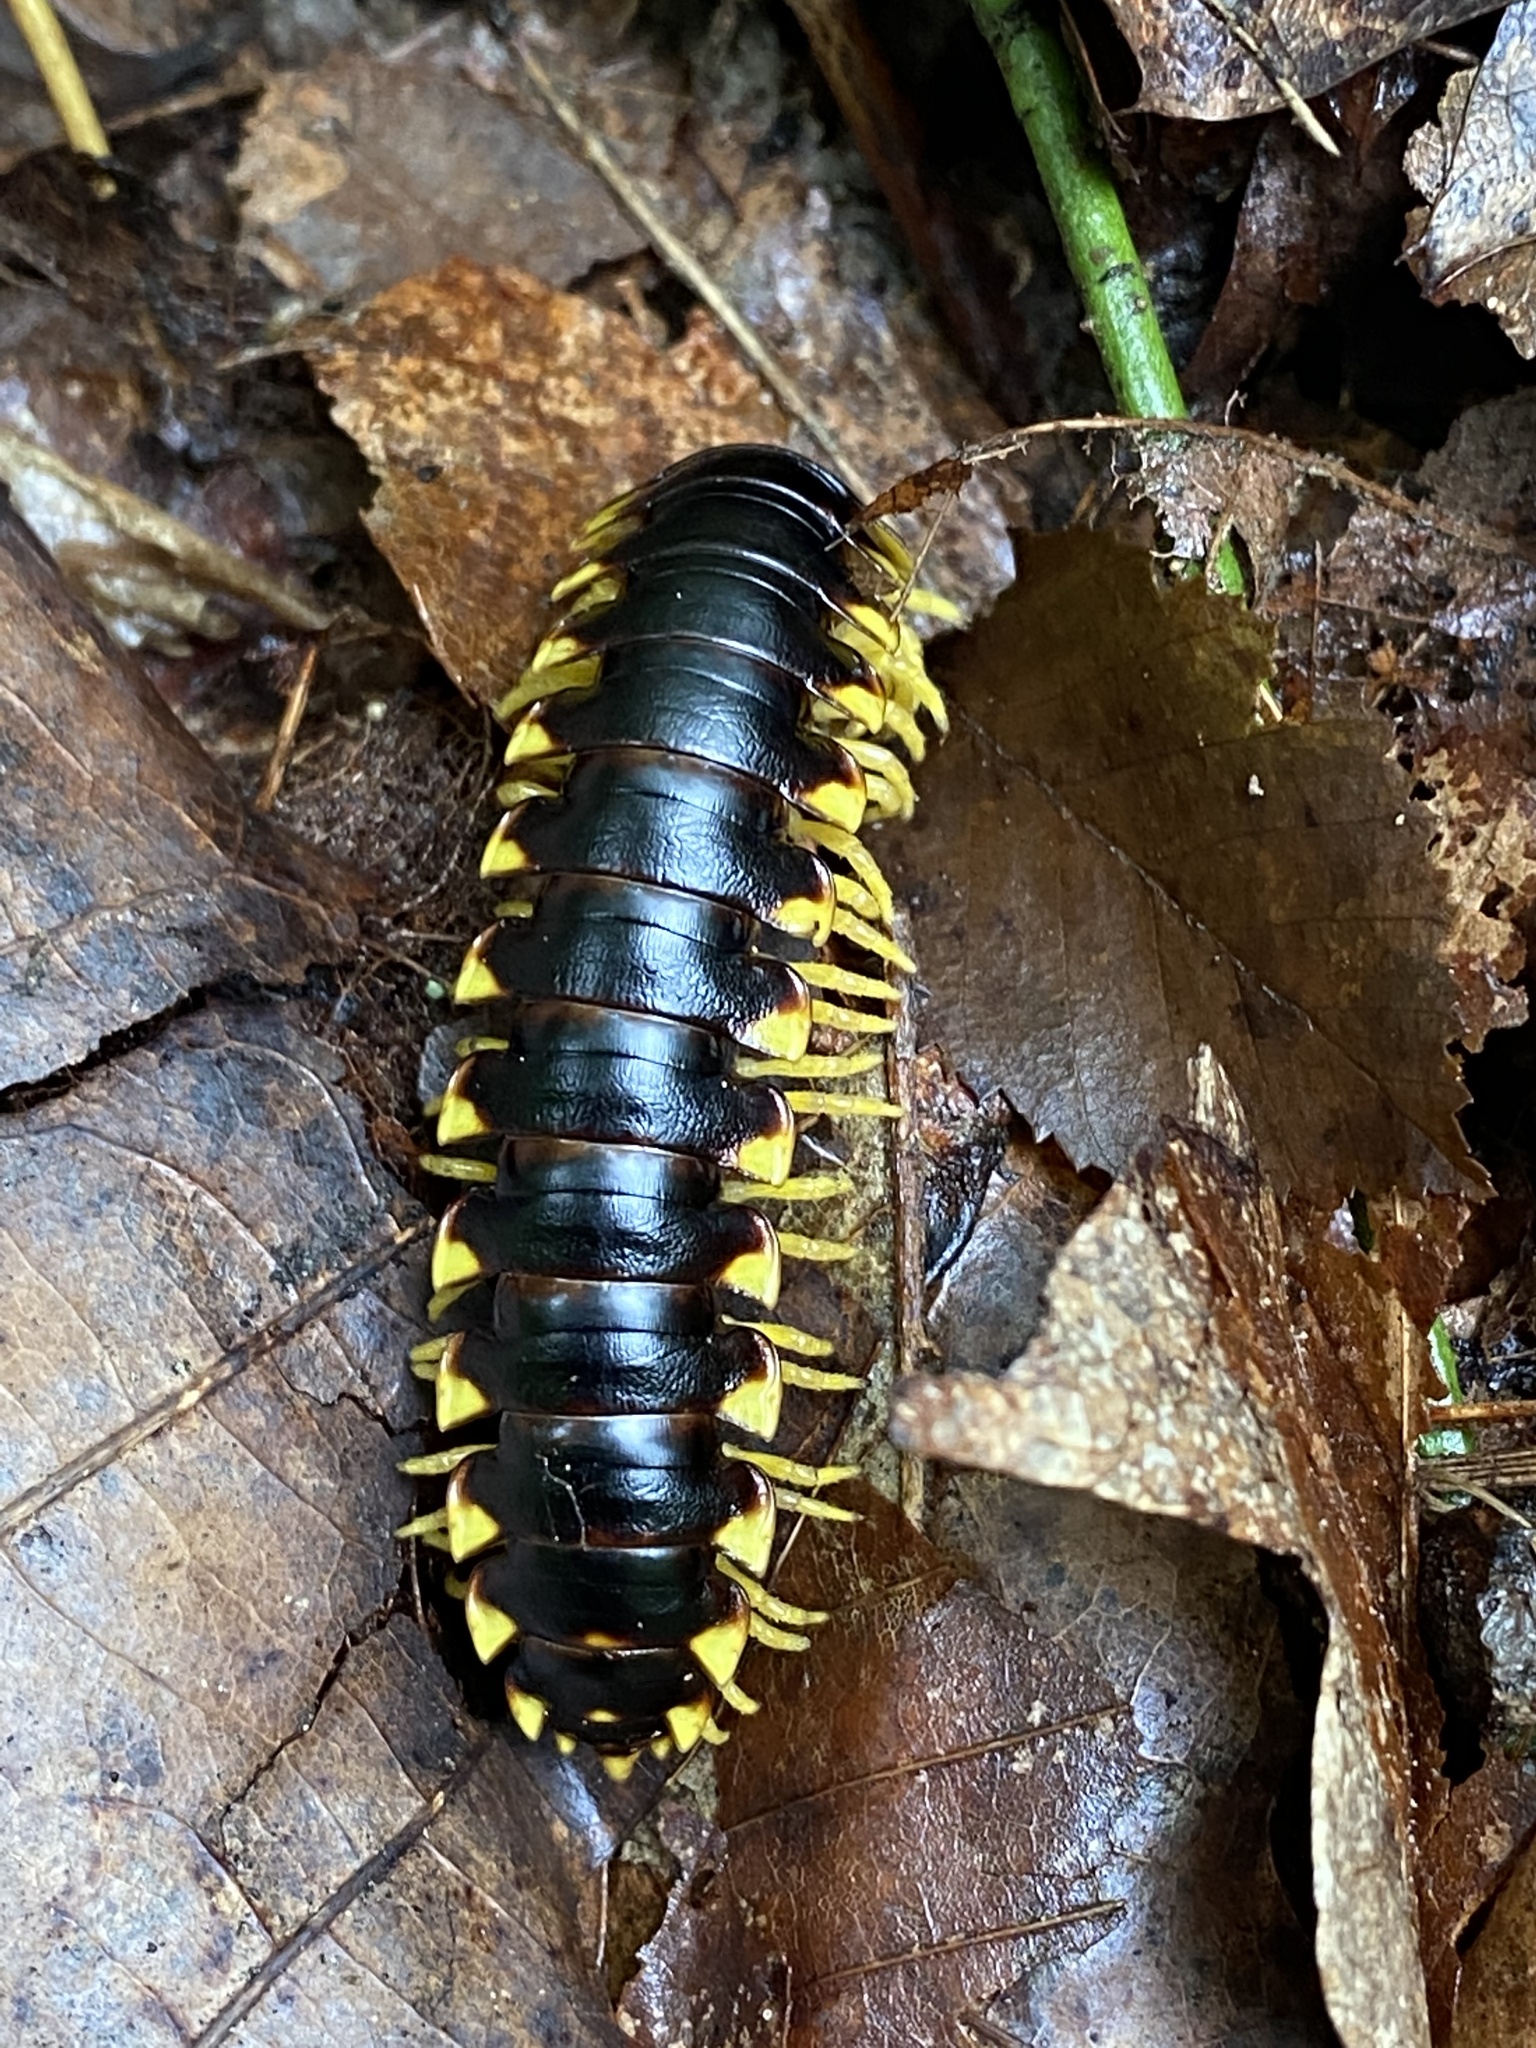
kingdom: Animalia
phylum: Arthropoda
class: Diplopoda
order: Polydesmida
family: Xystodesmidae
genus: Apheloria
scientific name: Apheloria tigana
